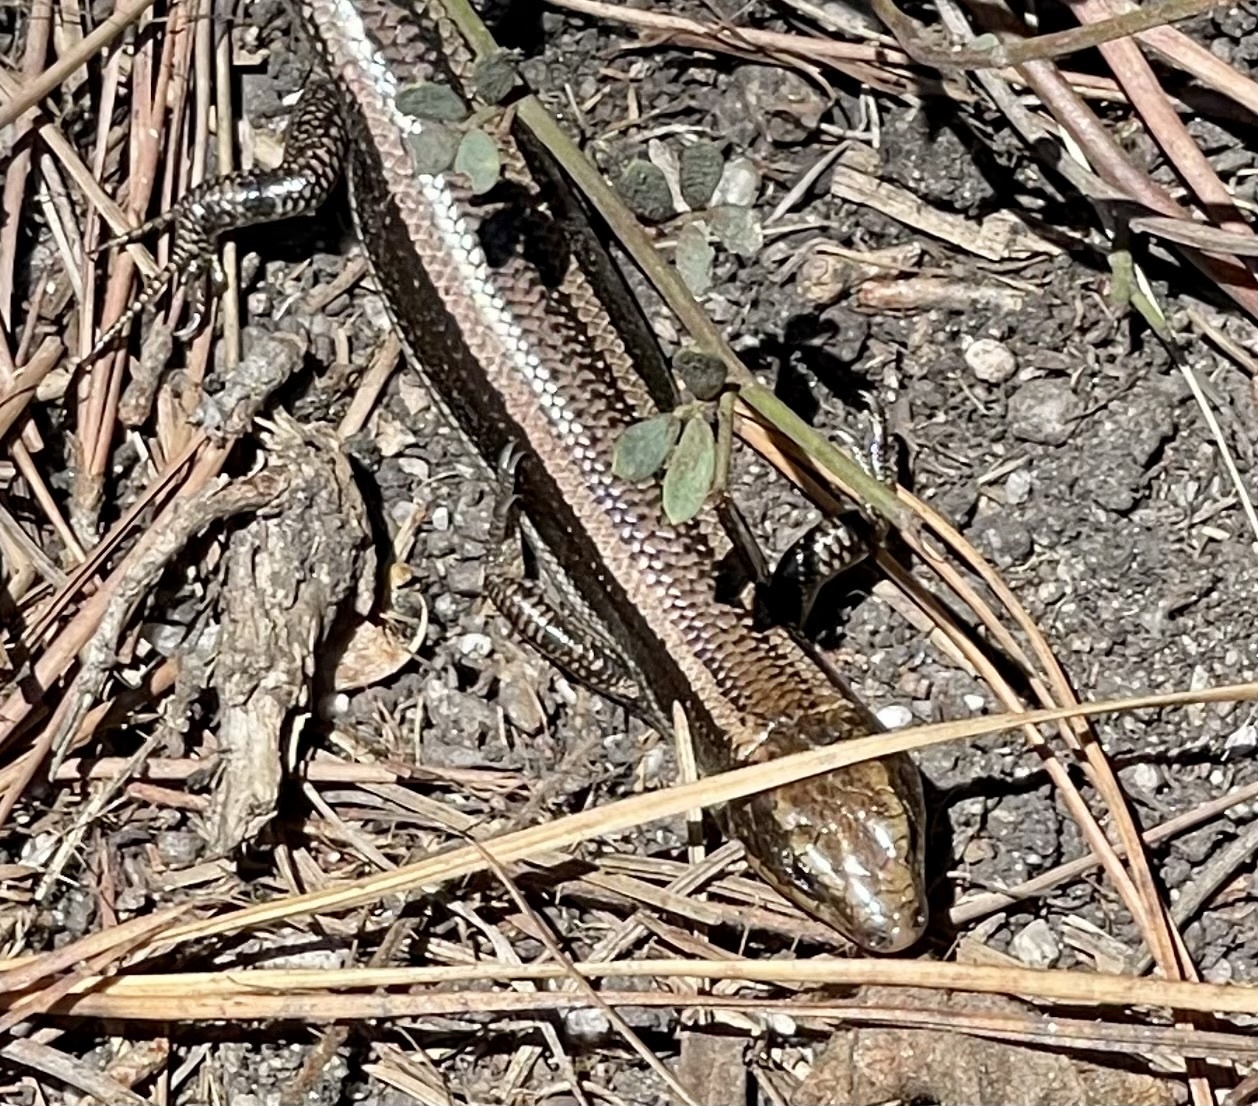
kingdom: Animalia
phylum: Chordata
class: Squamata
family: Scincidae
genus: Plestiodon
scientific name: Plestiodon skiltonianus
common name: Coronado island skink [interparietalis]
